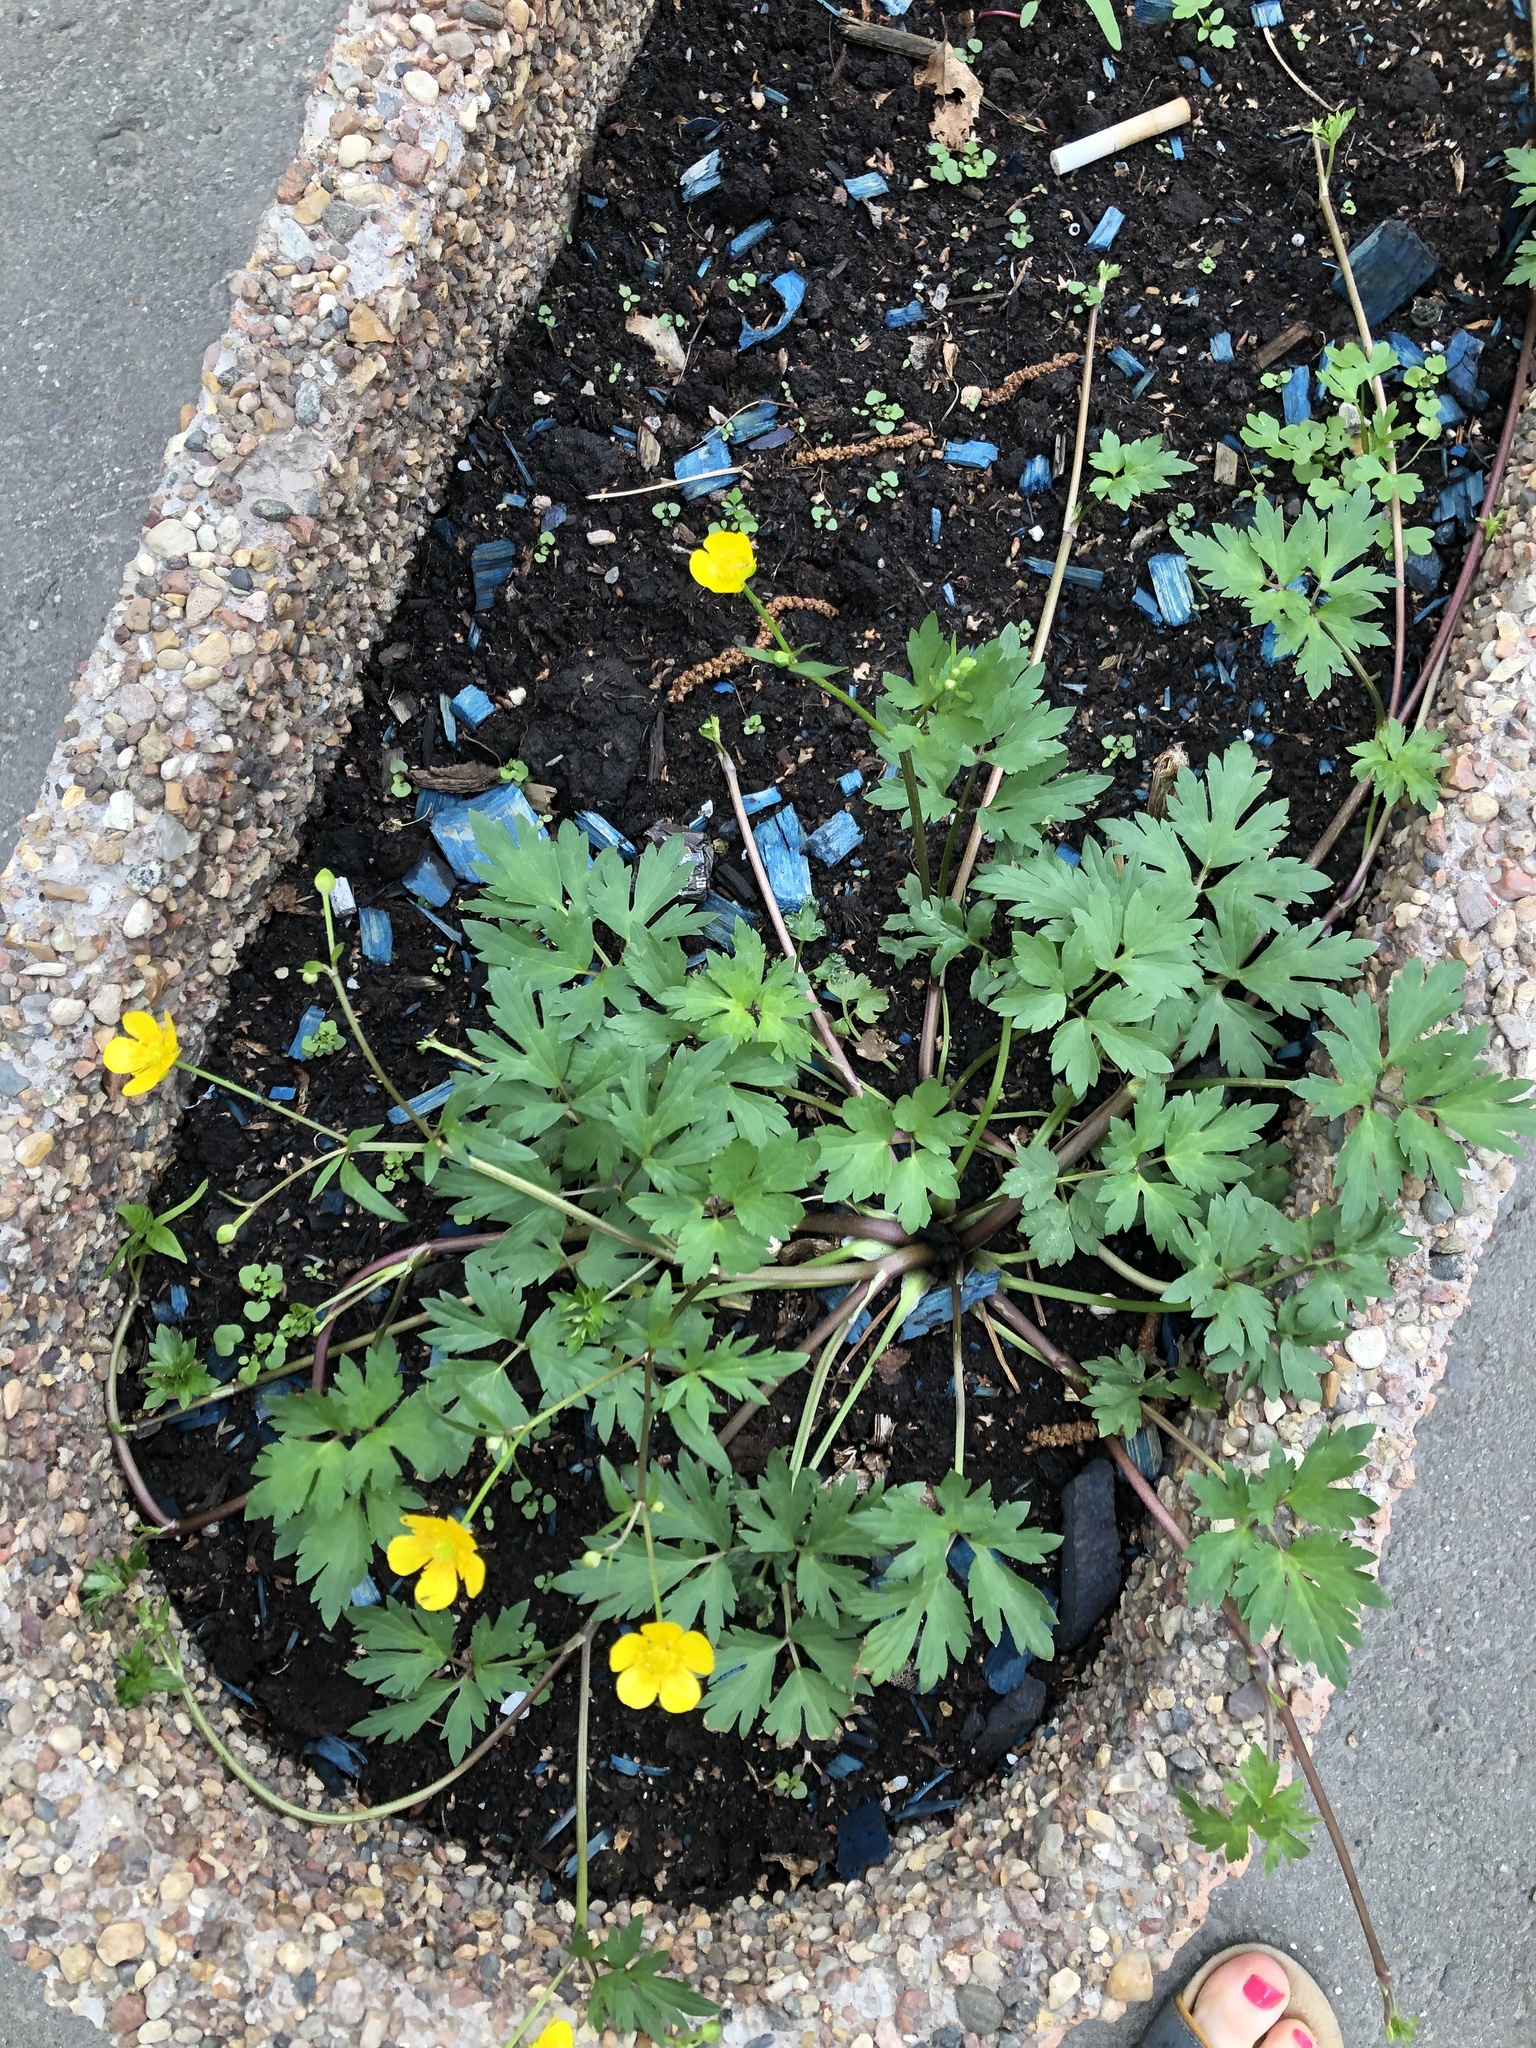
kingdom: Plantae
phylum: Tracheophyta
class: Magnoliopsida
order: Ranunculales
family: Ranunculaceae
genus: Ranunculus
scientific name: Ranunculus repens
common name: Creeping buttercup
